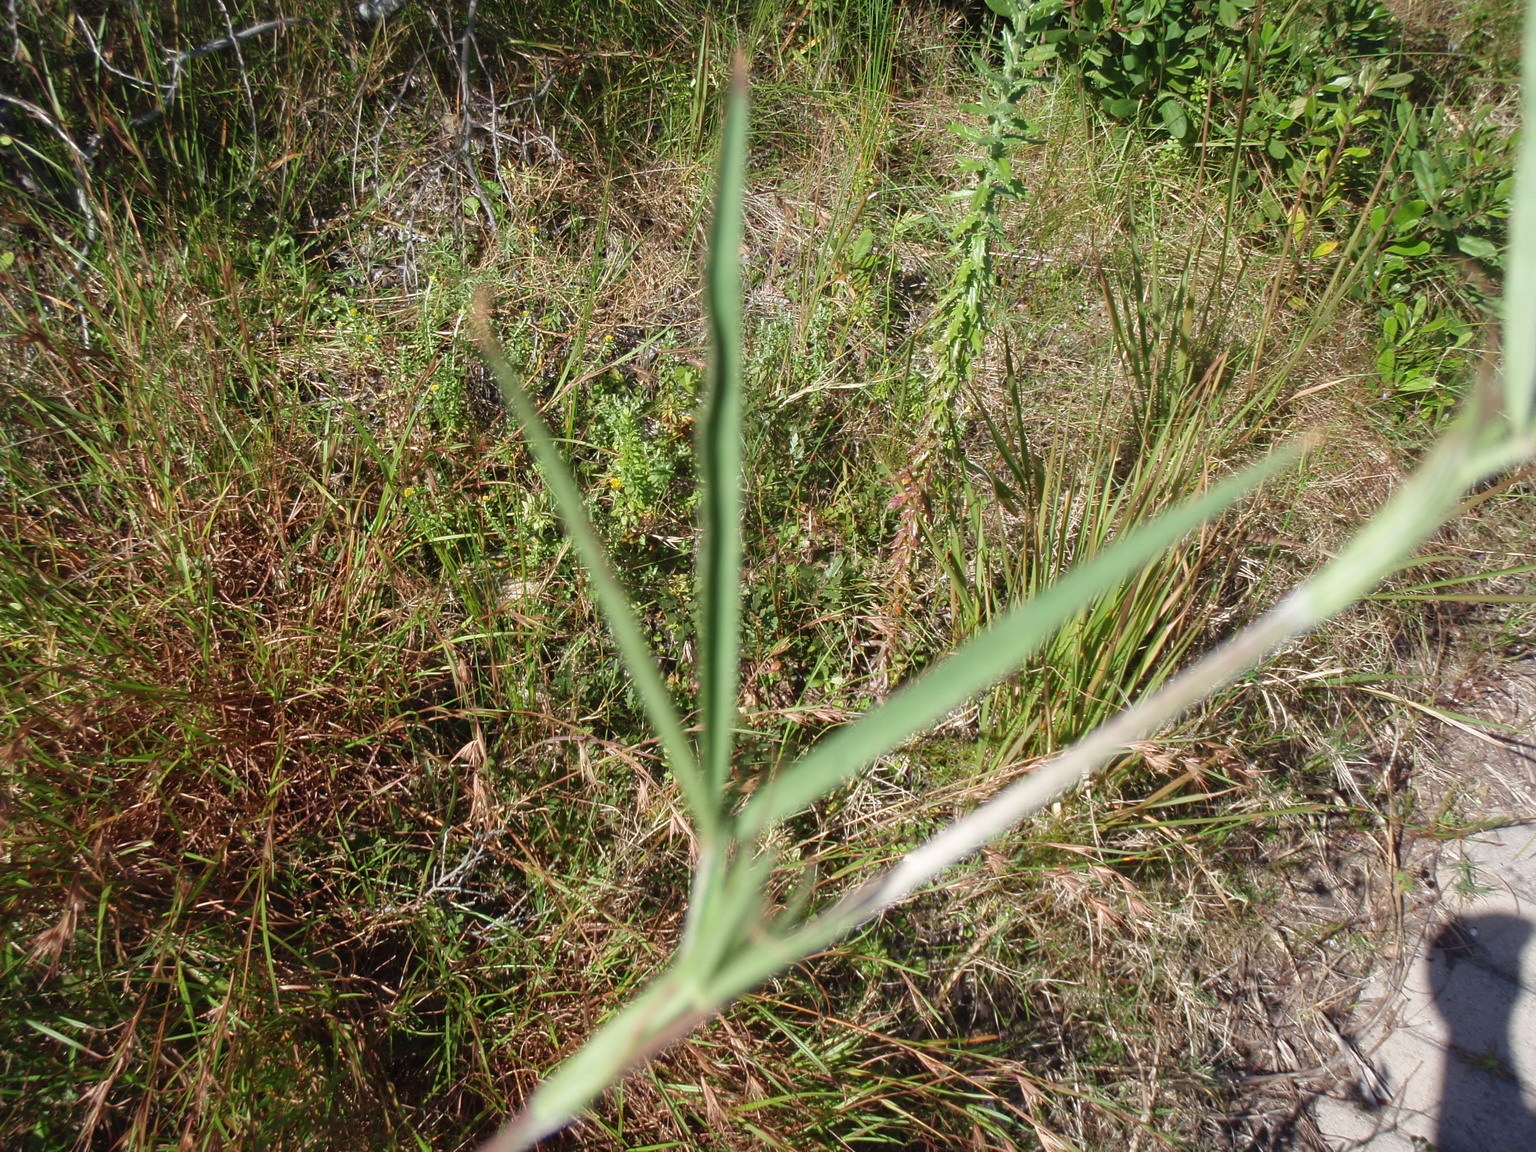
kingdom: Plantae
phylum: Tracheophyta
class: Magnoliopsida
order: Fabales
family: Fabaceae
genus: Trifolium
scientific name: Trifolium angustifolium
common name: Narrow clover
